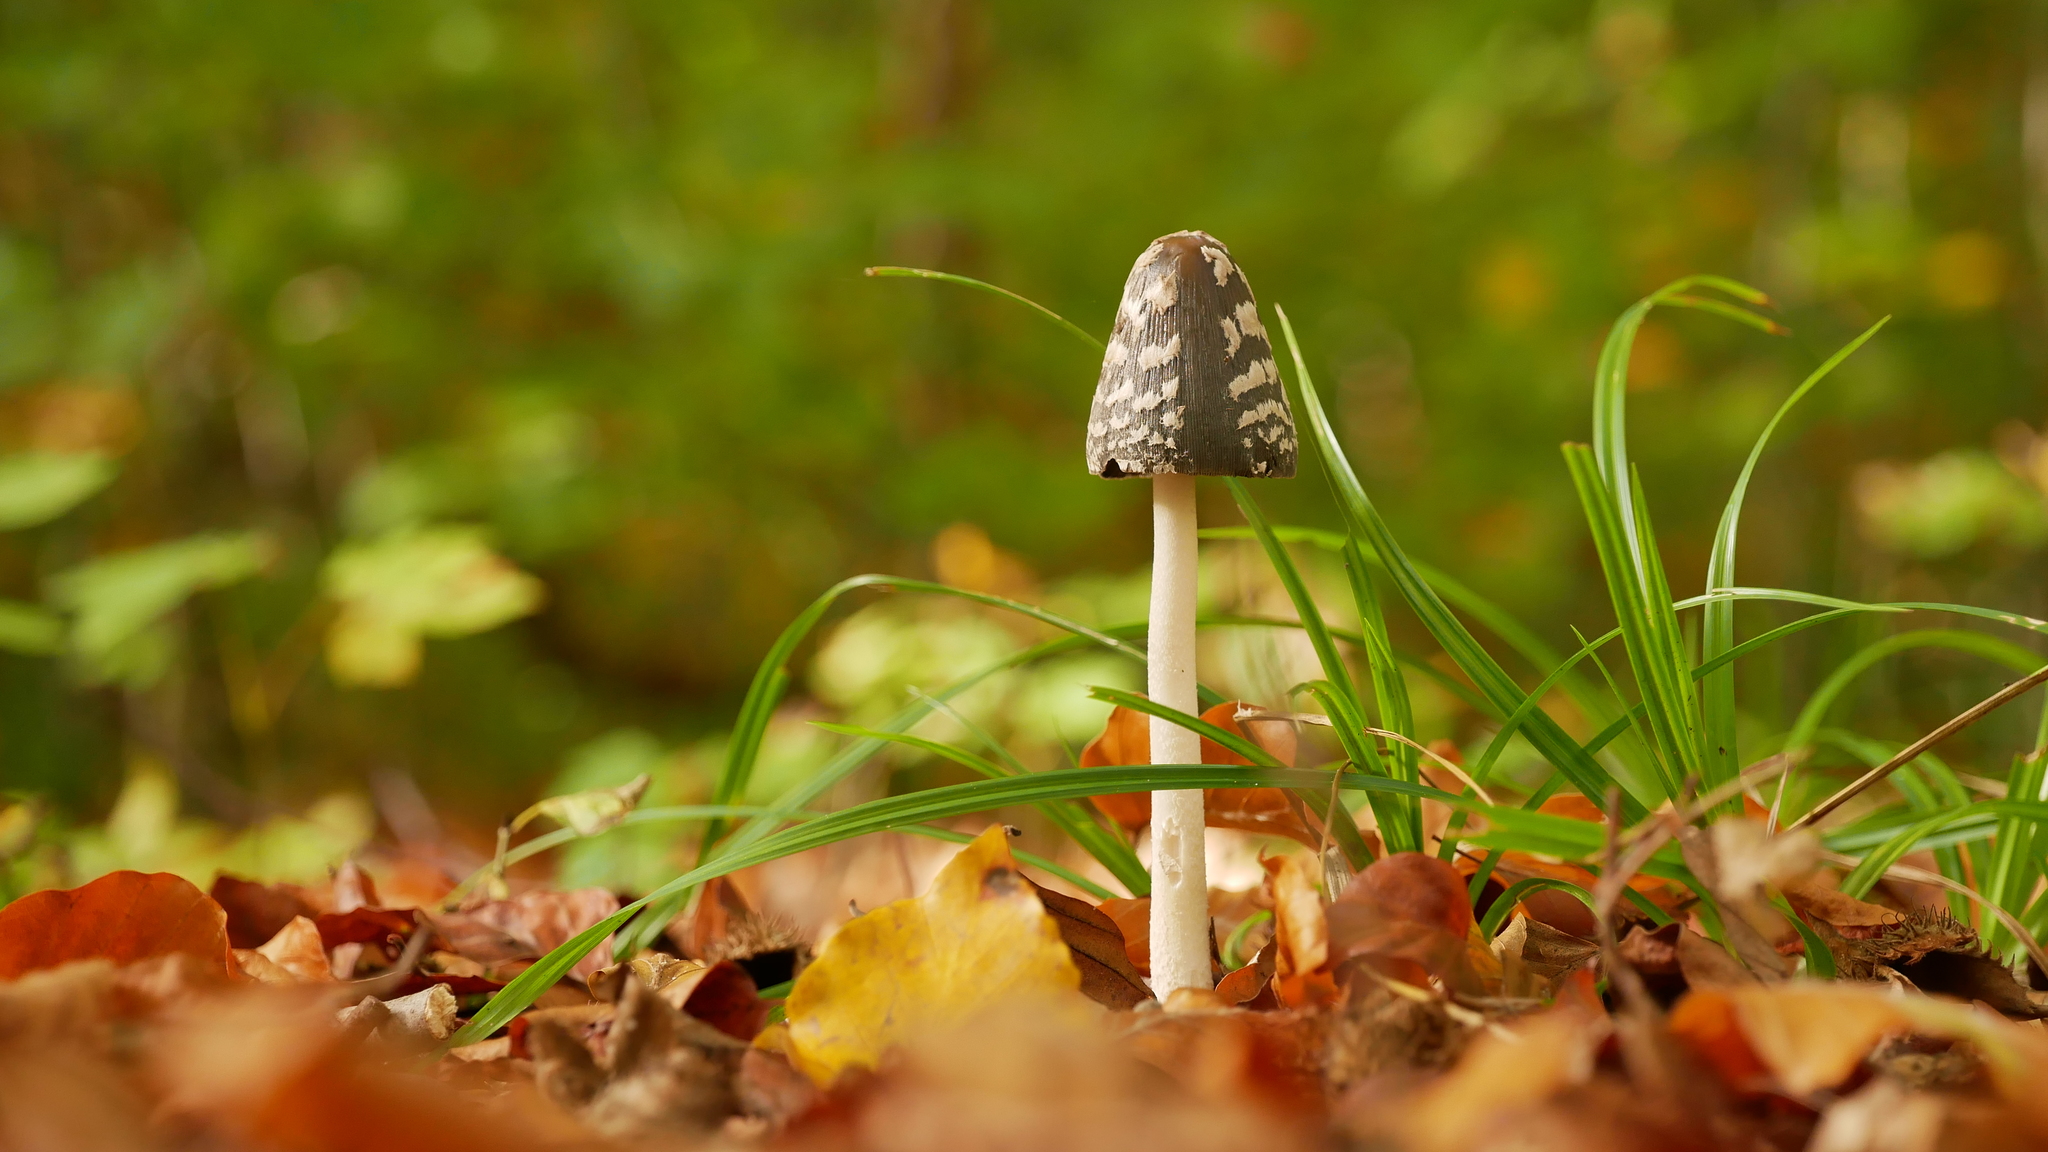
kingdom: Fungi
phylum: Basidiomycota
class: Agaricomycetes
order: Agaricales
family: Psathyrellaceae
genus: Coprinopsis
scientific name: Coprinopsis picacea
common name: Magpie inkcap
